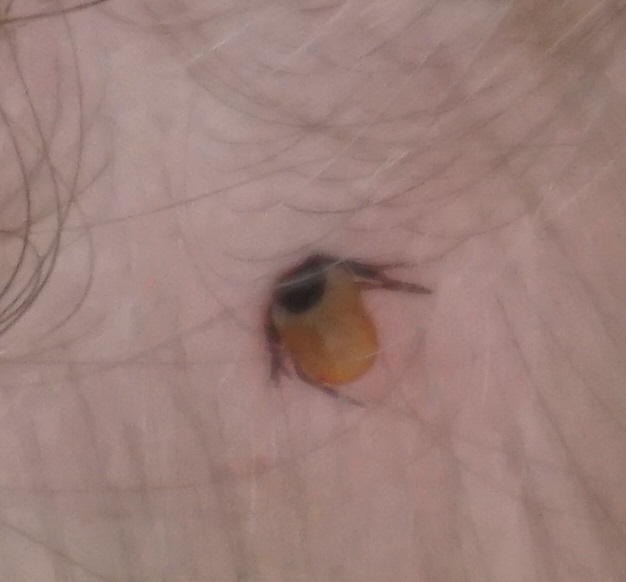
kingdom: Animalia
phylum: Arthropoda
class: Arachnida
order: Ixodida
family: Ixodidae
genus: Ixodes
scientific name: Ixodes ricinus
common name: Castor bean tick
